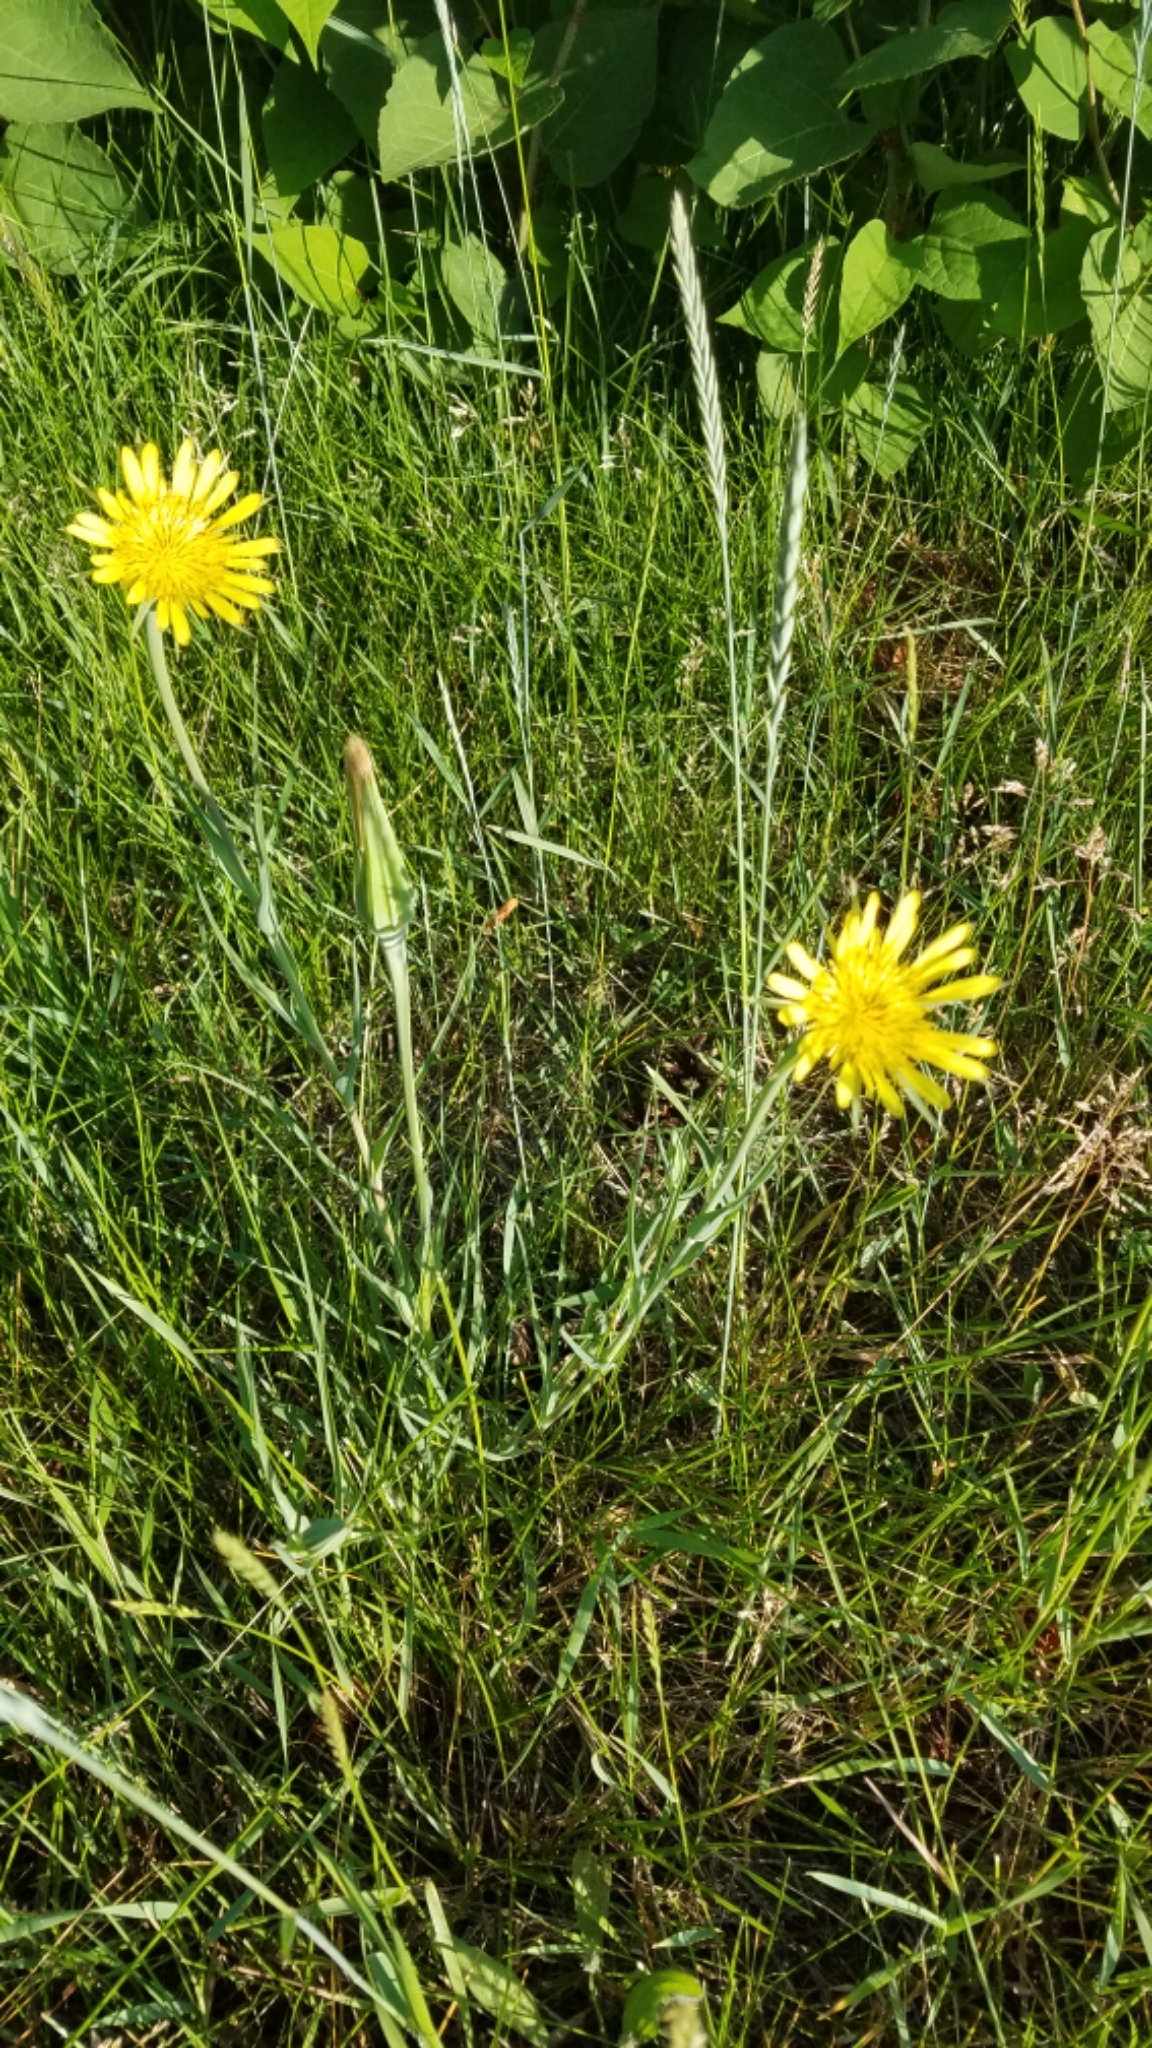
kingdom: Plantae
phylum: Tracheophyta
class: Magnoliopsida
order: Asterales
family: Asteraceae
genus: Tragopogon
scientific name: Tragopogon dubius
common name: Yellow salsify
